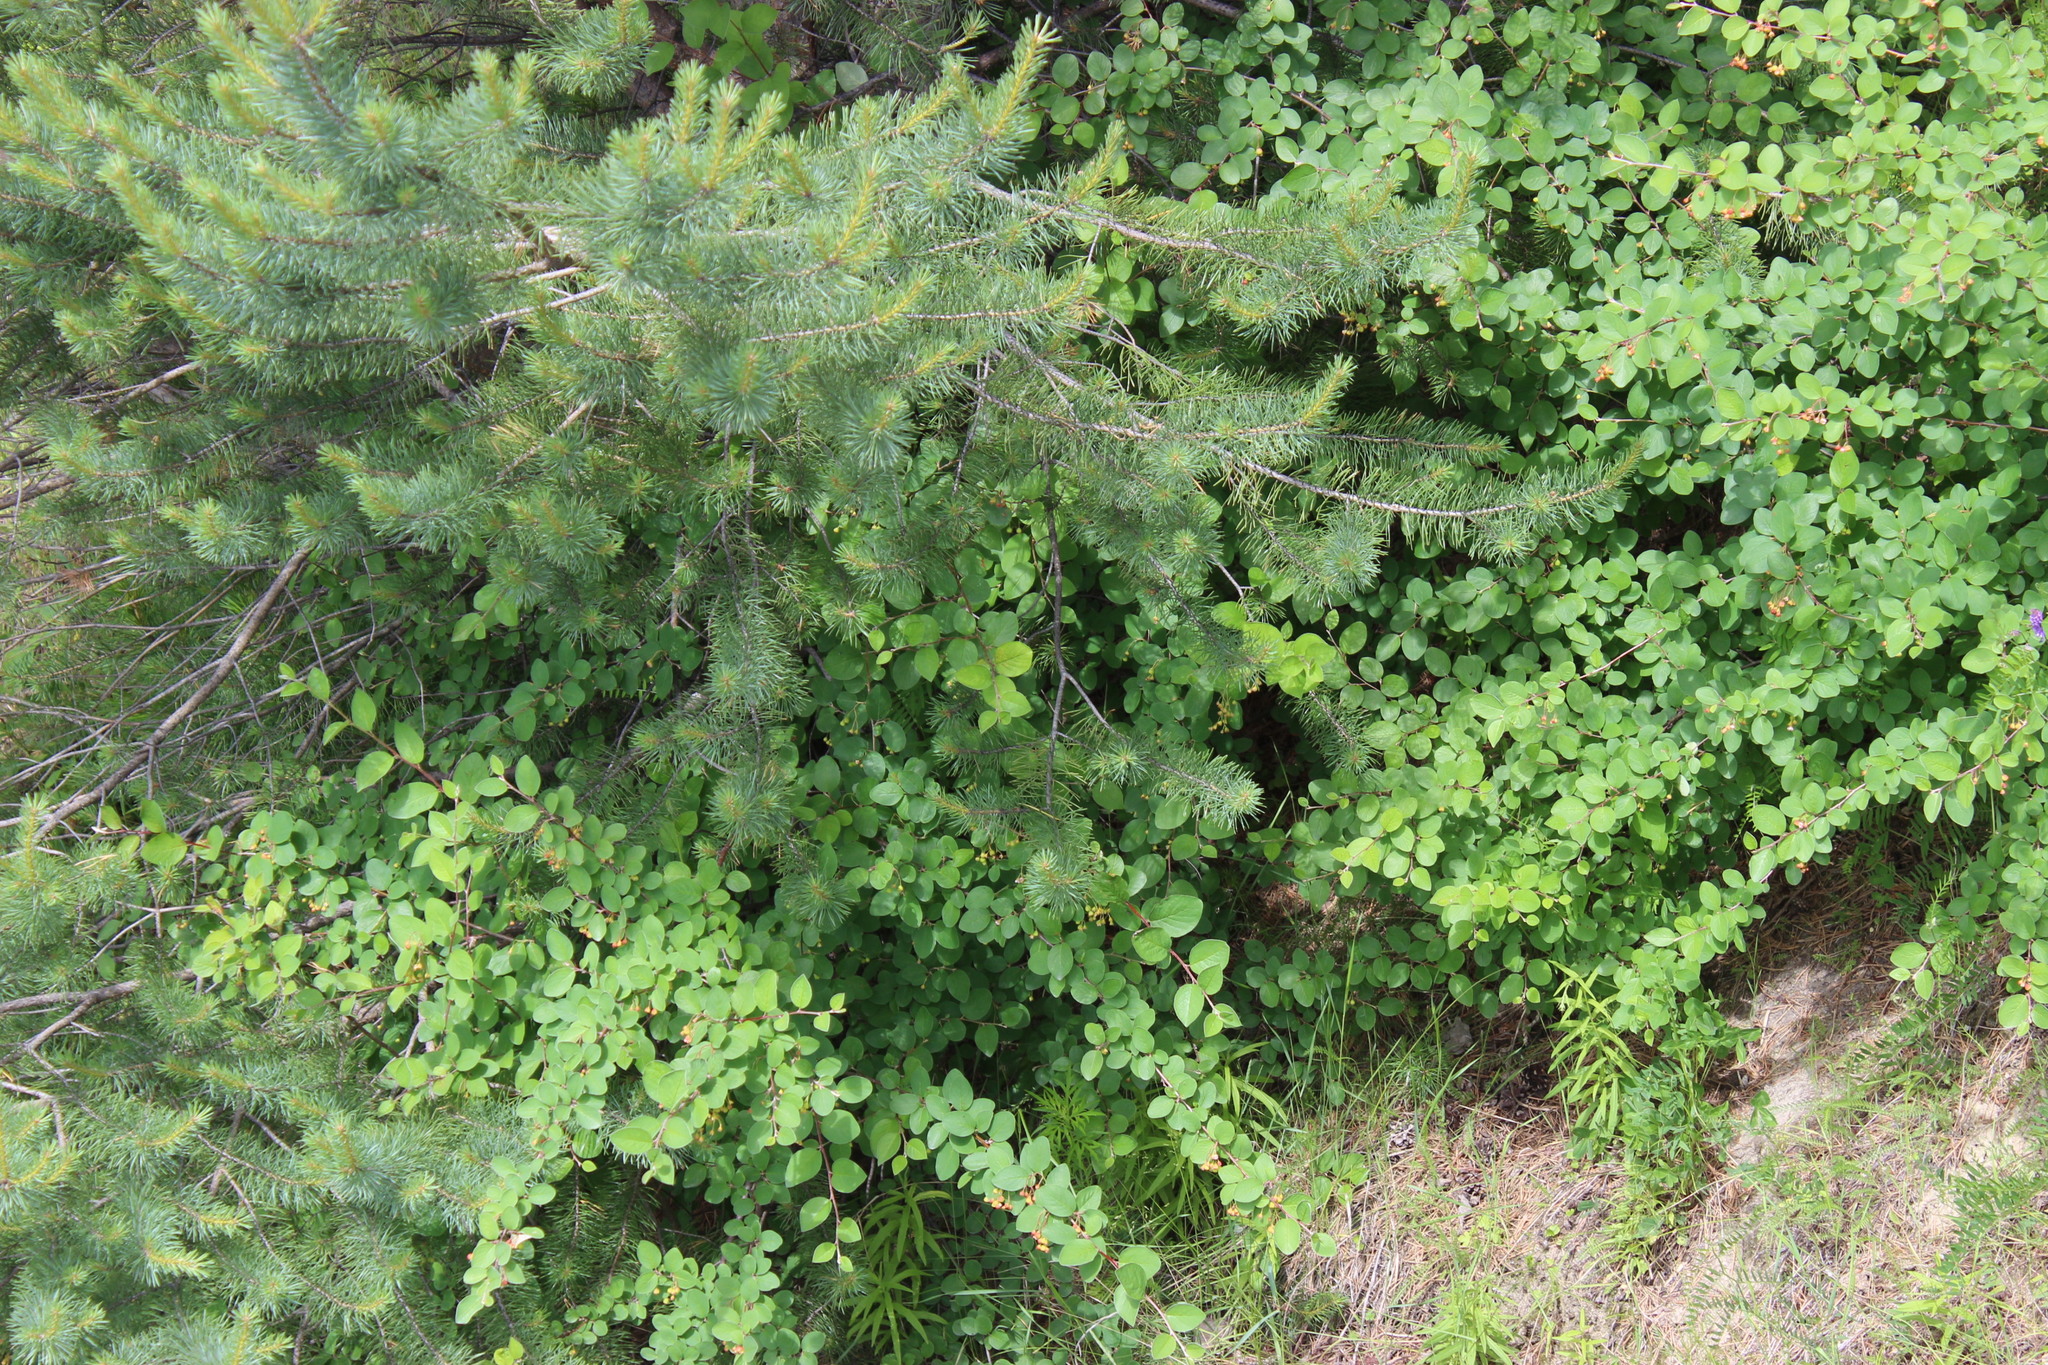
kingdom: Plantae
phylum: Tracheophyta
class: Magnoliopsida
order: Rosales
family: Rosaceae
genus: Cotoneaster
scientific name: Cotoneaster melanocarpus
